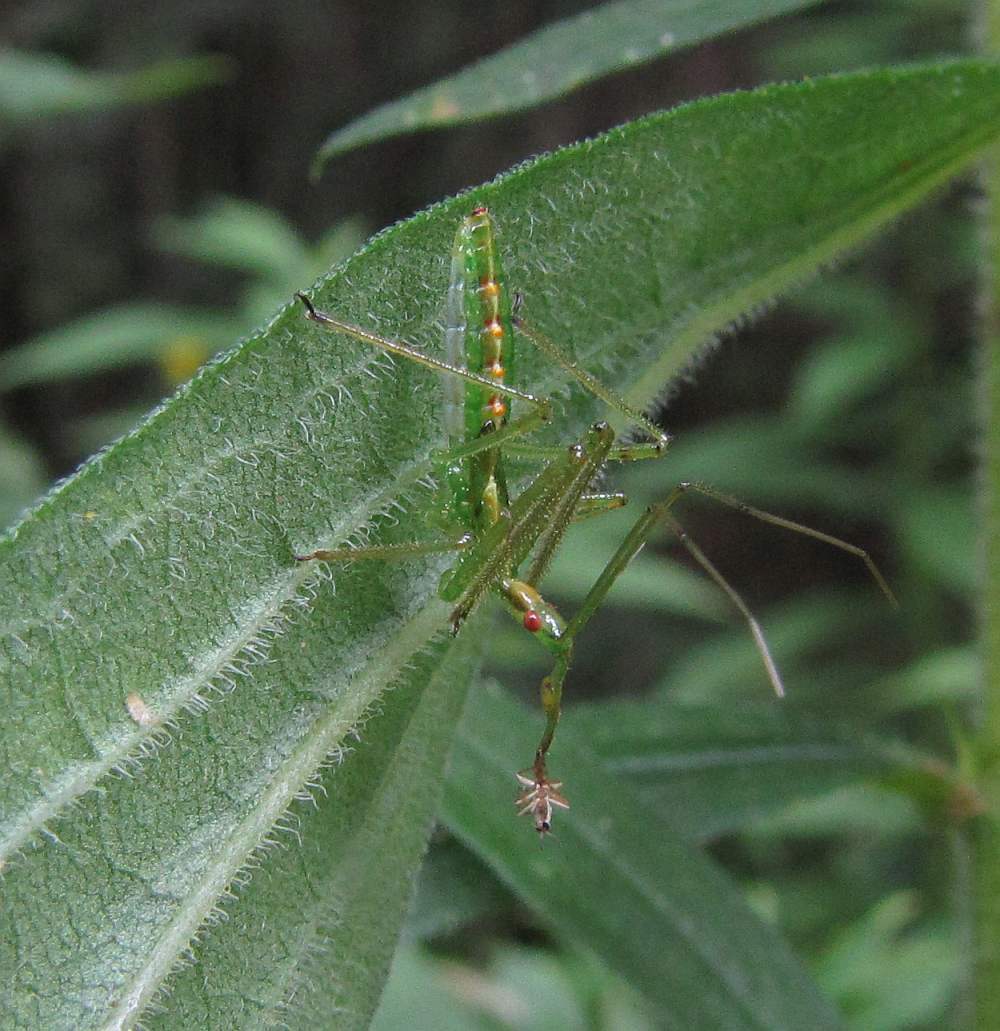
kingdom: Animalia
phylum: Arthropoda
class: Insecta
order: Hemiptera
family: Reduviidae
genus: Zelus
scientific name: Zelus luridus
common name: Pale green assassin bug
